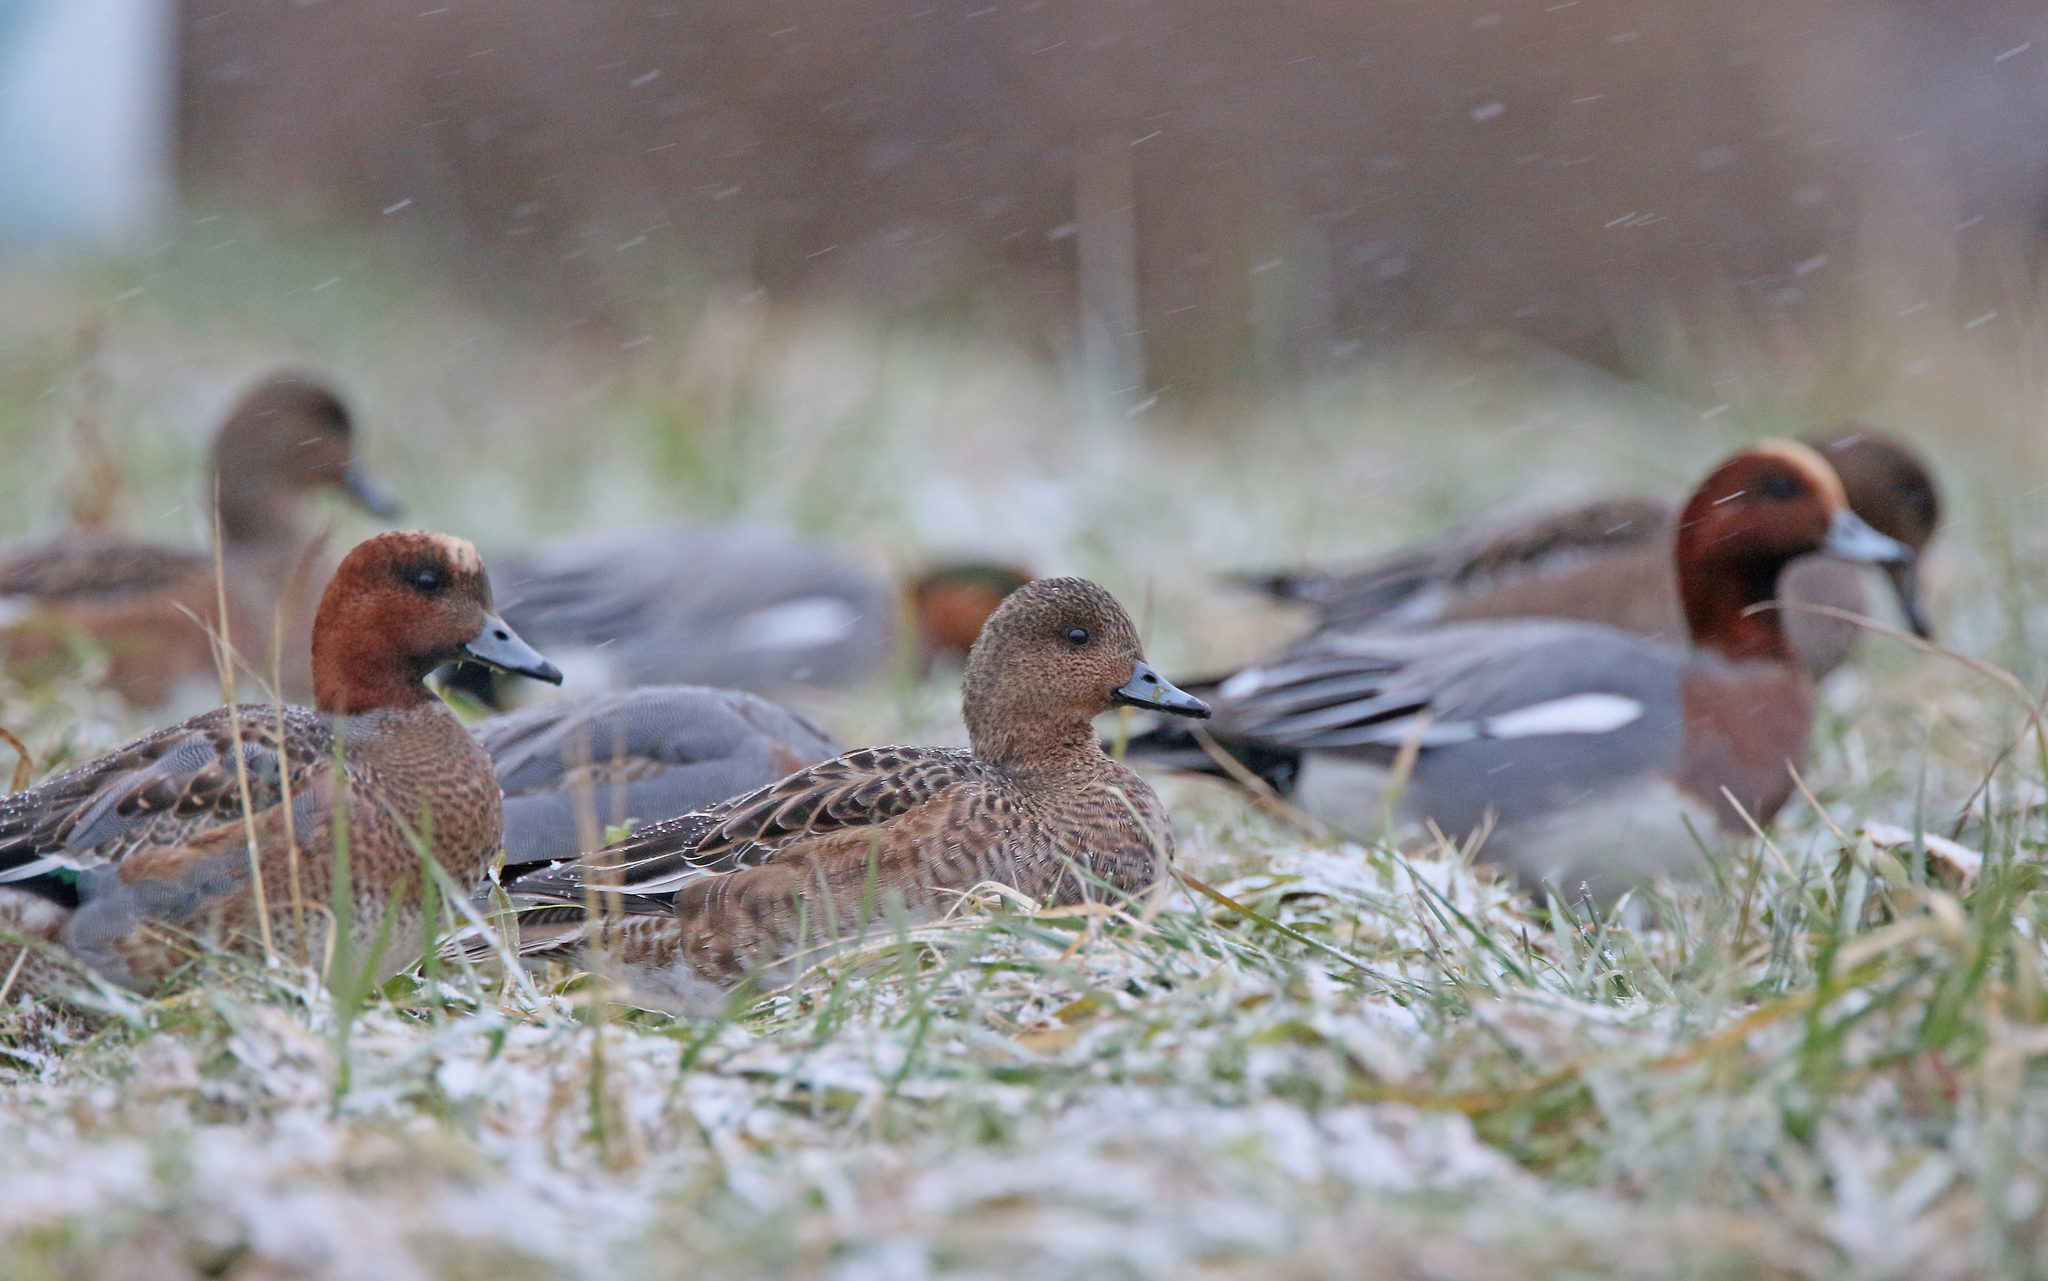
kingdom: Animalia
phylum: Chordata
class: Aves
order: Anseriformes
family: Anatidae
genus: Mareca
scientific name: Mareca penelope
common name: Eurasian wigeon
